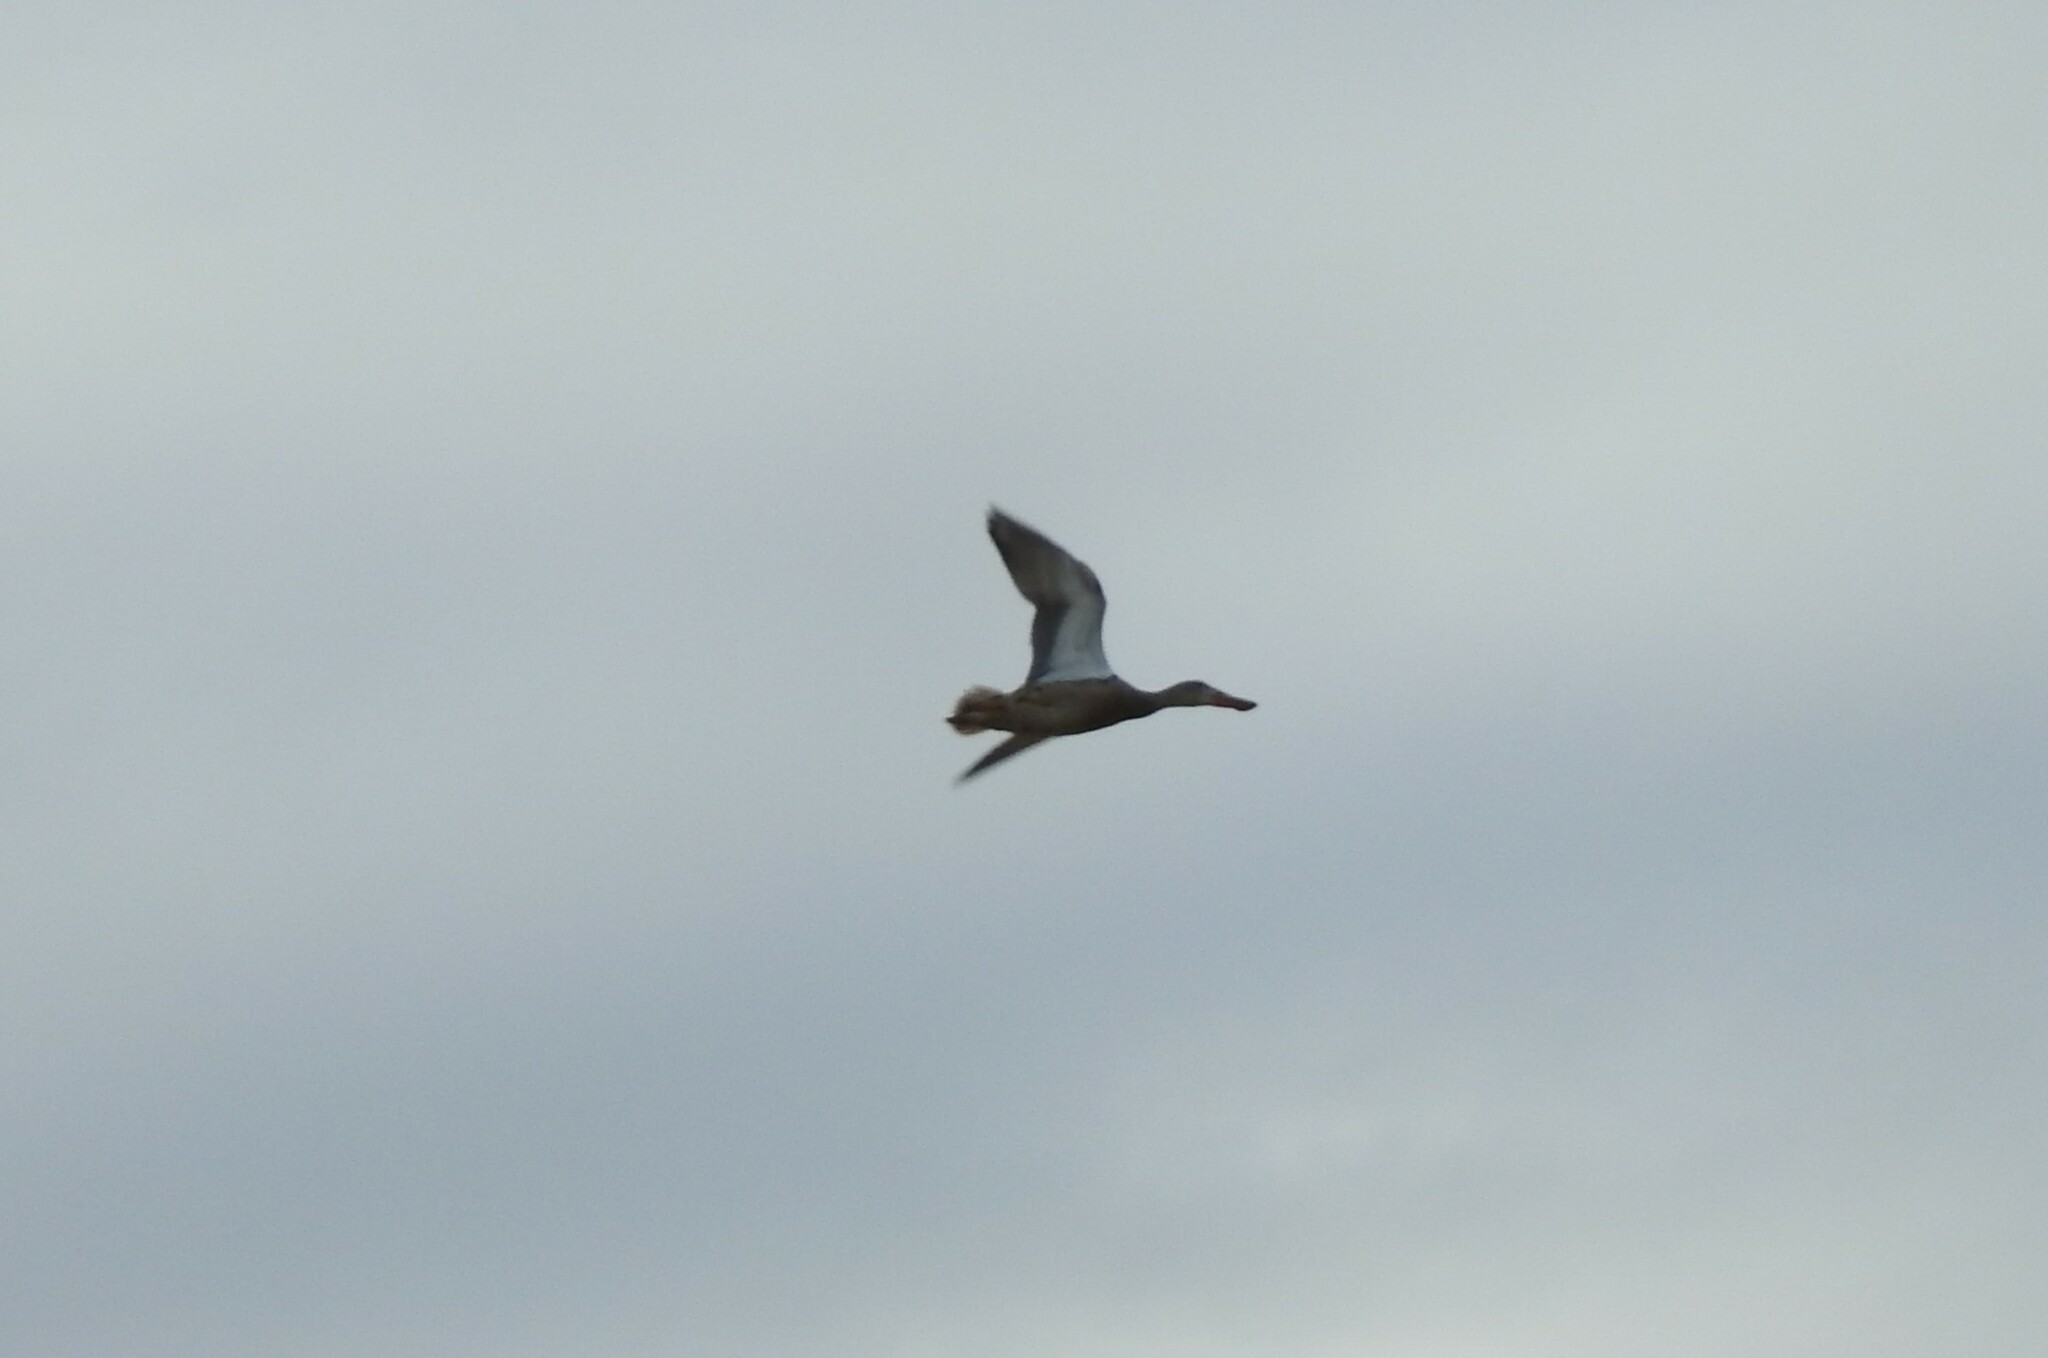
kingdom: Animalia
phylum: Chordata
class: Aves
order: Anseriformes
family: Anatidae
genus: Spatula
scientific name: Spatula clypeata
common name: Northern shoveler
